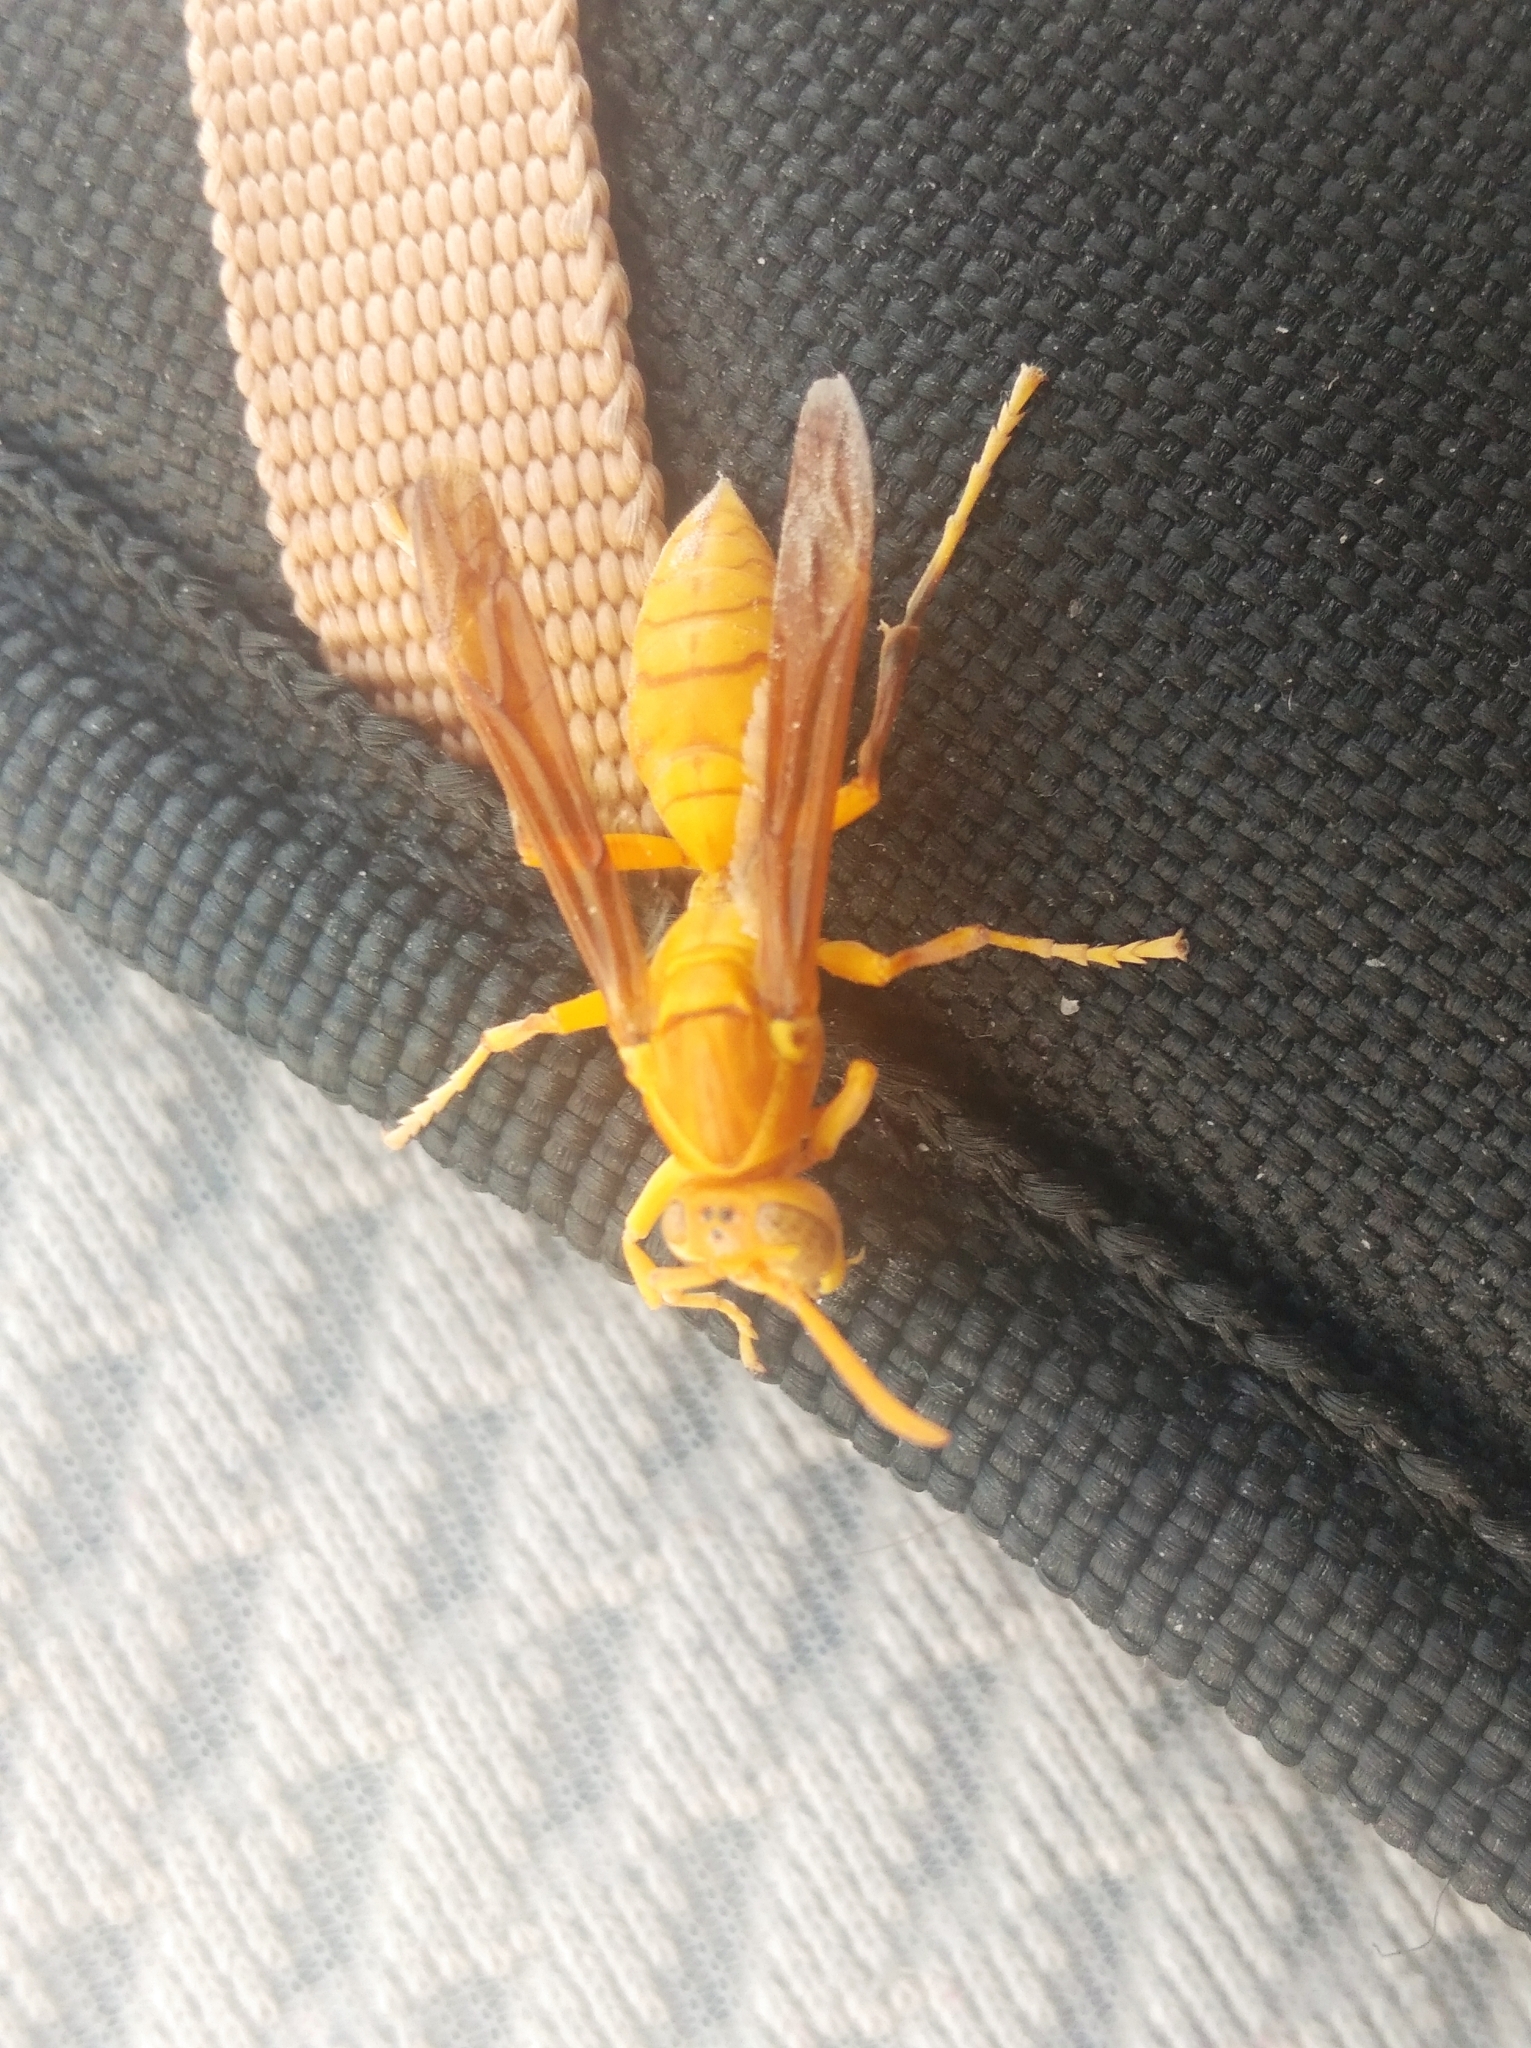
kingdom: Animalia
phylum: Arthropoda
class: Insecta
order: Hymenoptera
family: Eumenidae
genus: Polistes
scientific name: Polistes wattii
